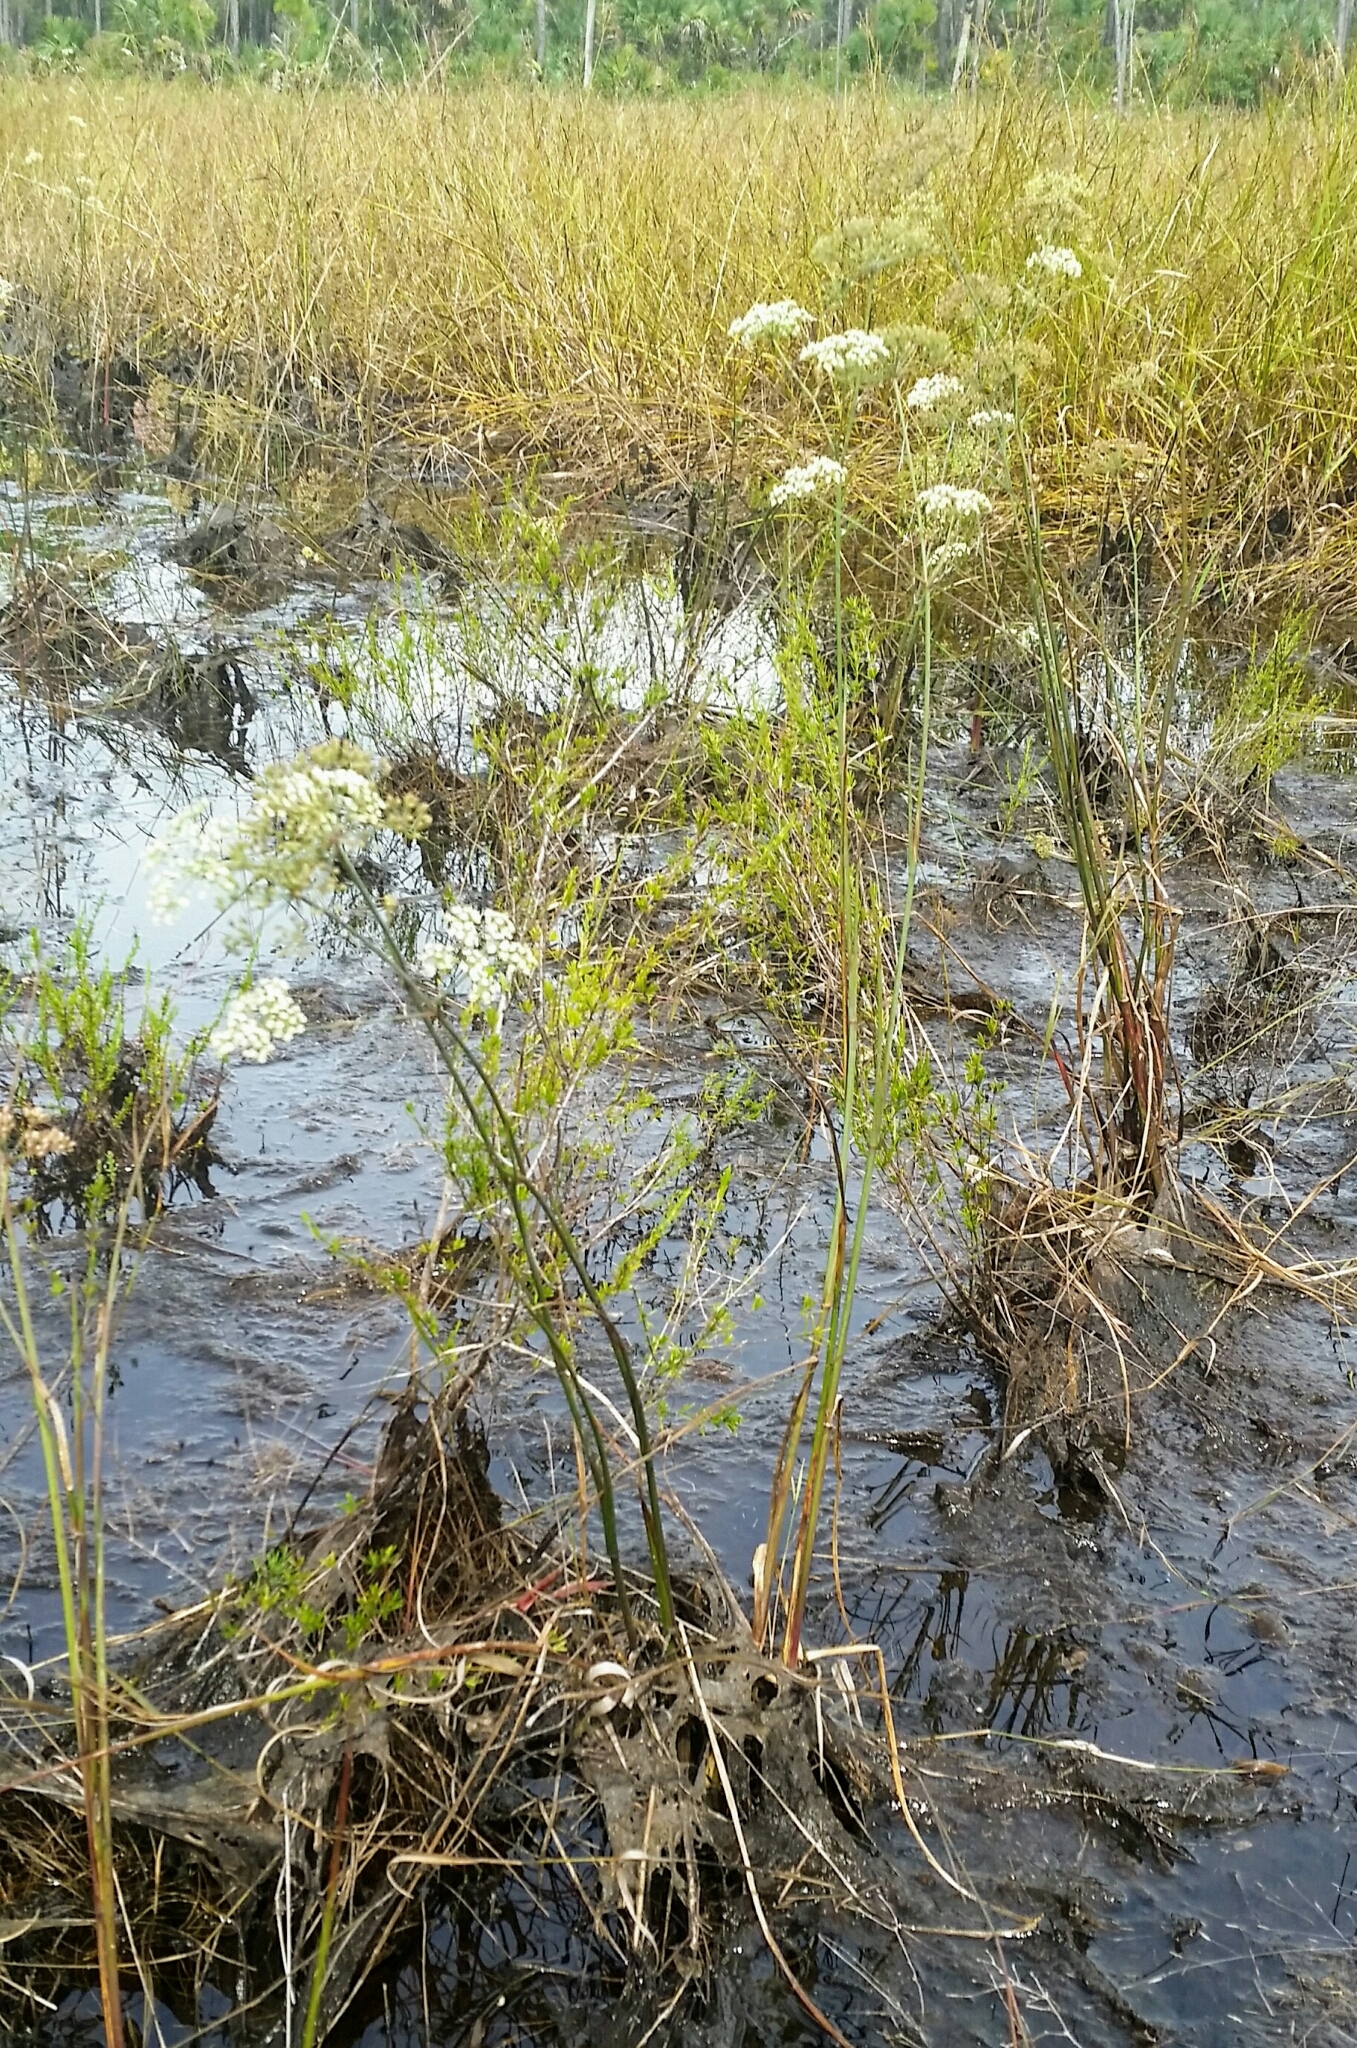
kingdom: Plantae
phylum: Tracheophyta
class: Magnoliopsida
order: Apiales
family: Apiaceae
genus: Tiedemannia
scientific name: Tiedemannia filiformis
